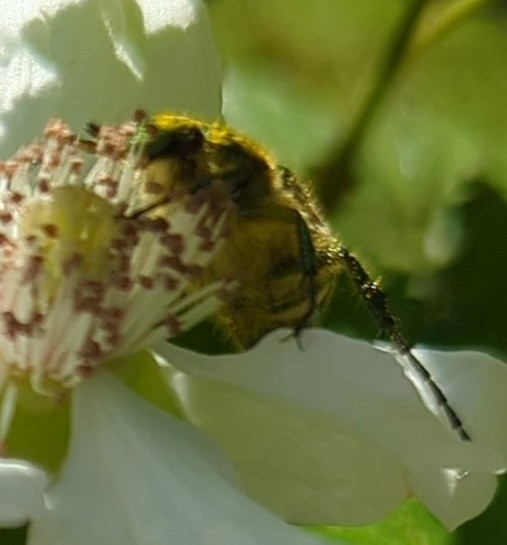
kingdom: Animalia
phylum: Arthropoda
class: Insecta
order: Coleoptera
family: Scarabaeidae
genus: Trichiotinus
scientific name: Trichiotinus lunulatus
